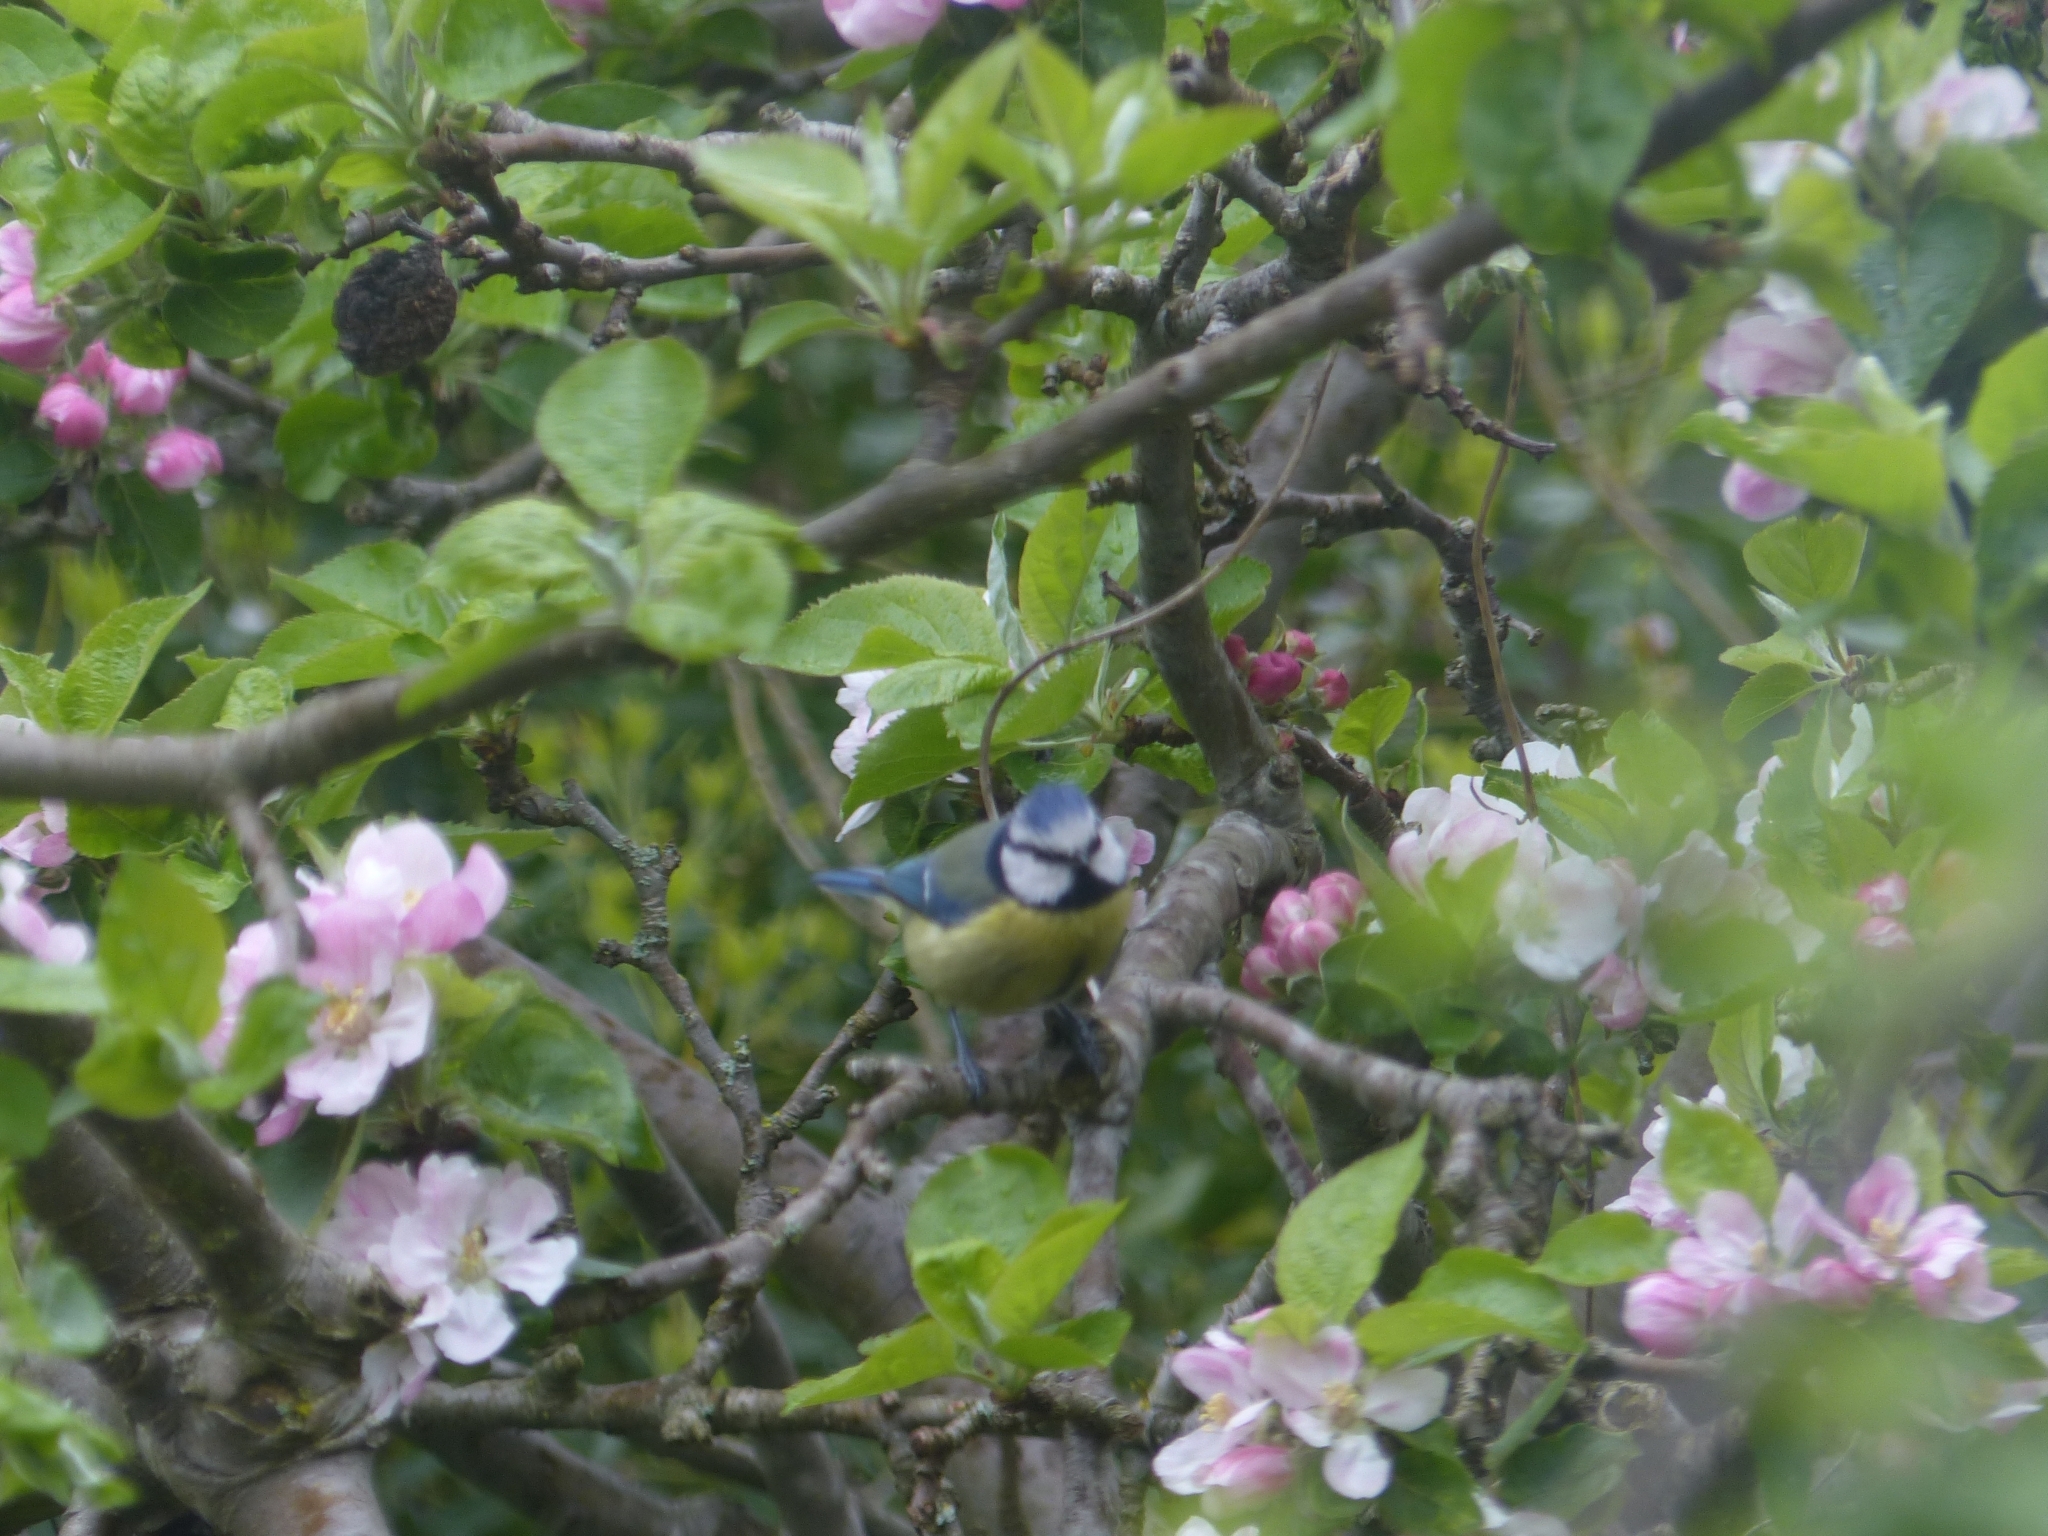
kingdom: Animalia
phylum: Chordata
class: Aves
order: Passeriformes
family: Paridae
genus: Cyanistes
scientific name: Cyanistes caeruleus
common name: Eurasian blue tit
